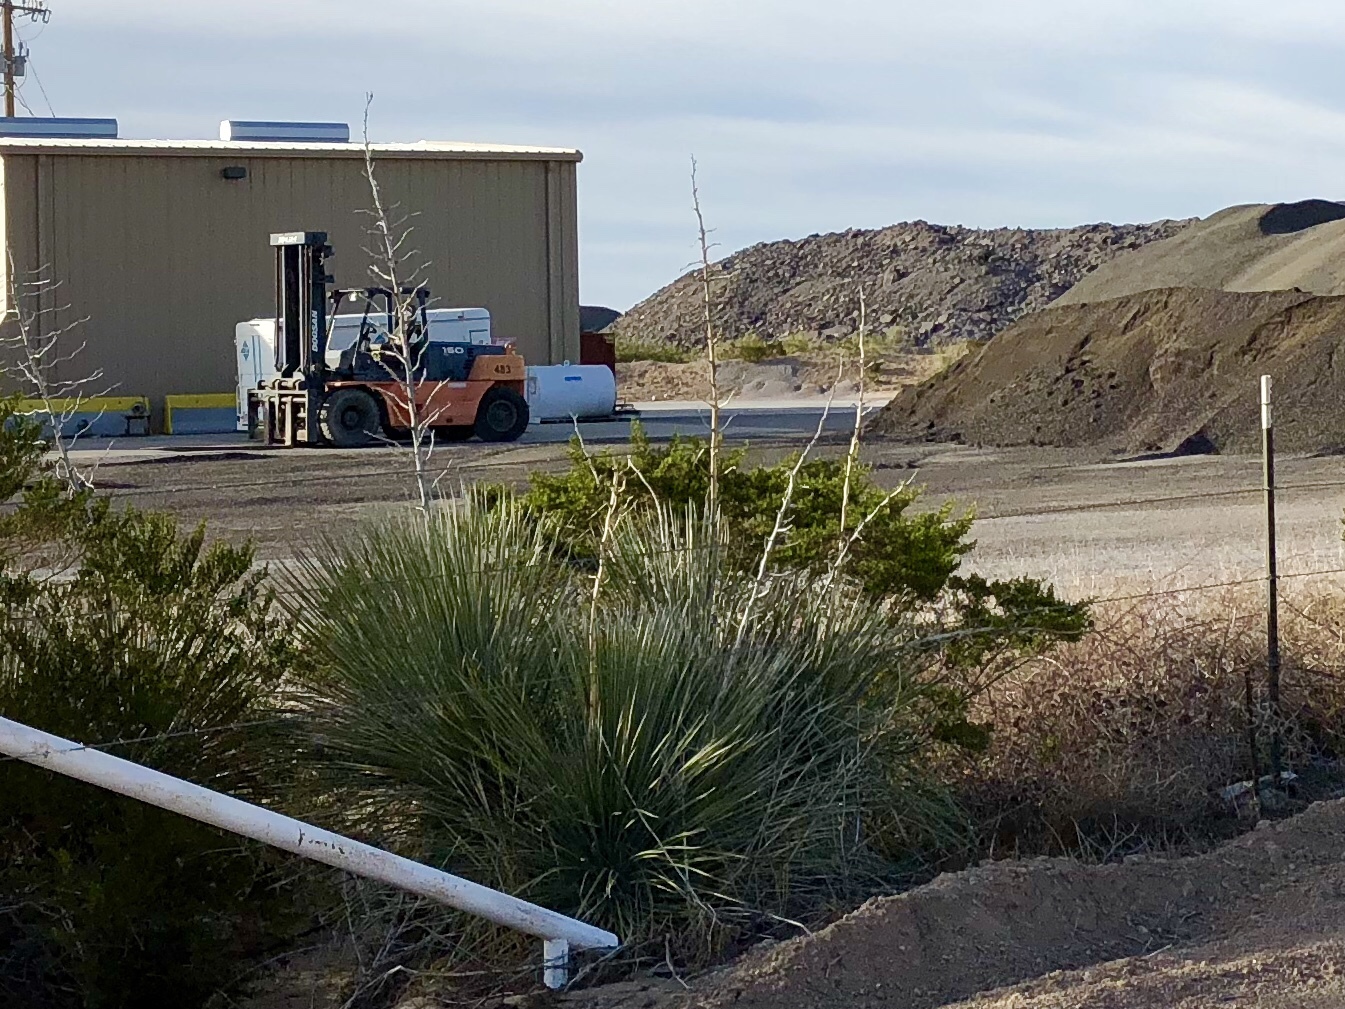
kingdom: Plantae
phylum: Tracheophyta
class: Liliopsida
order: Asparagales
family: Asparagaceae
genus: Yucca
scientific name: Yucca elata
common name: Palmella
